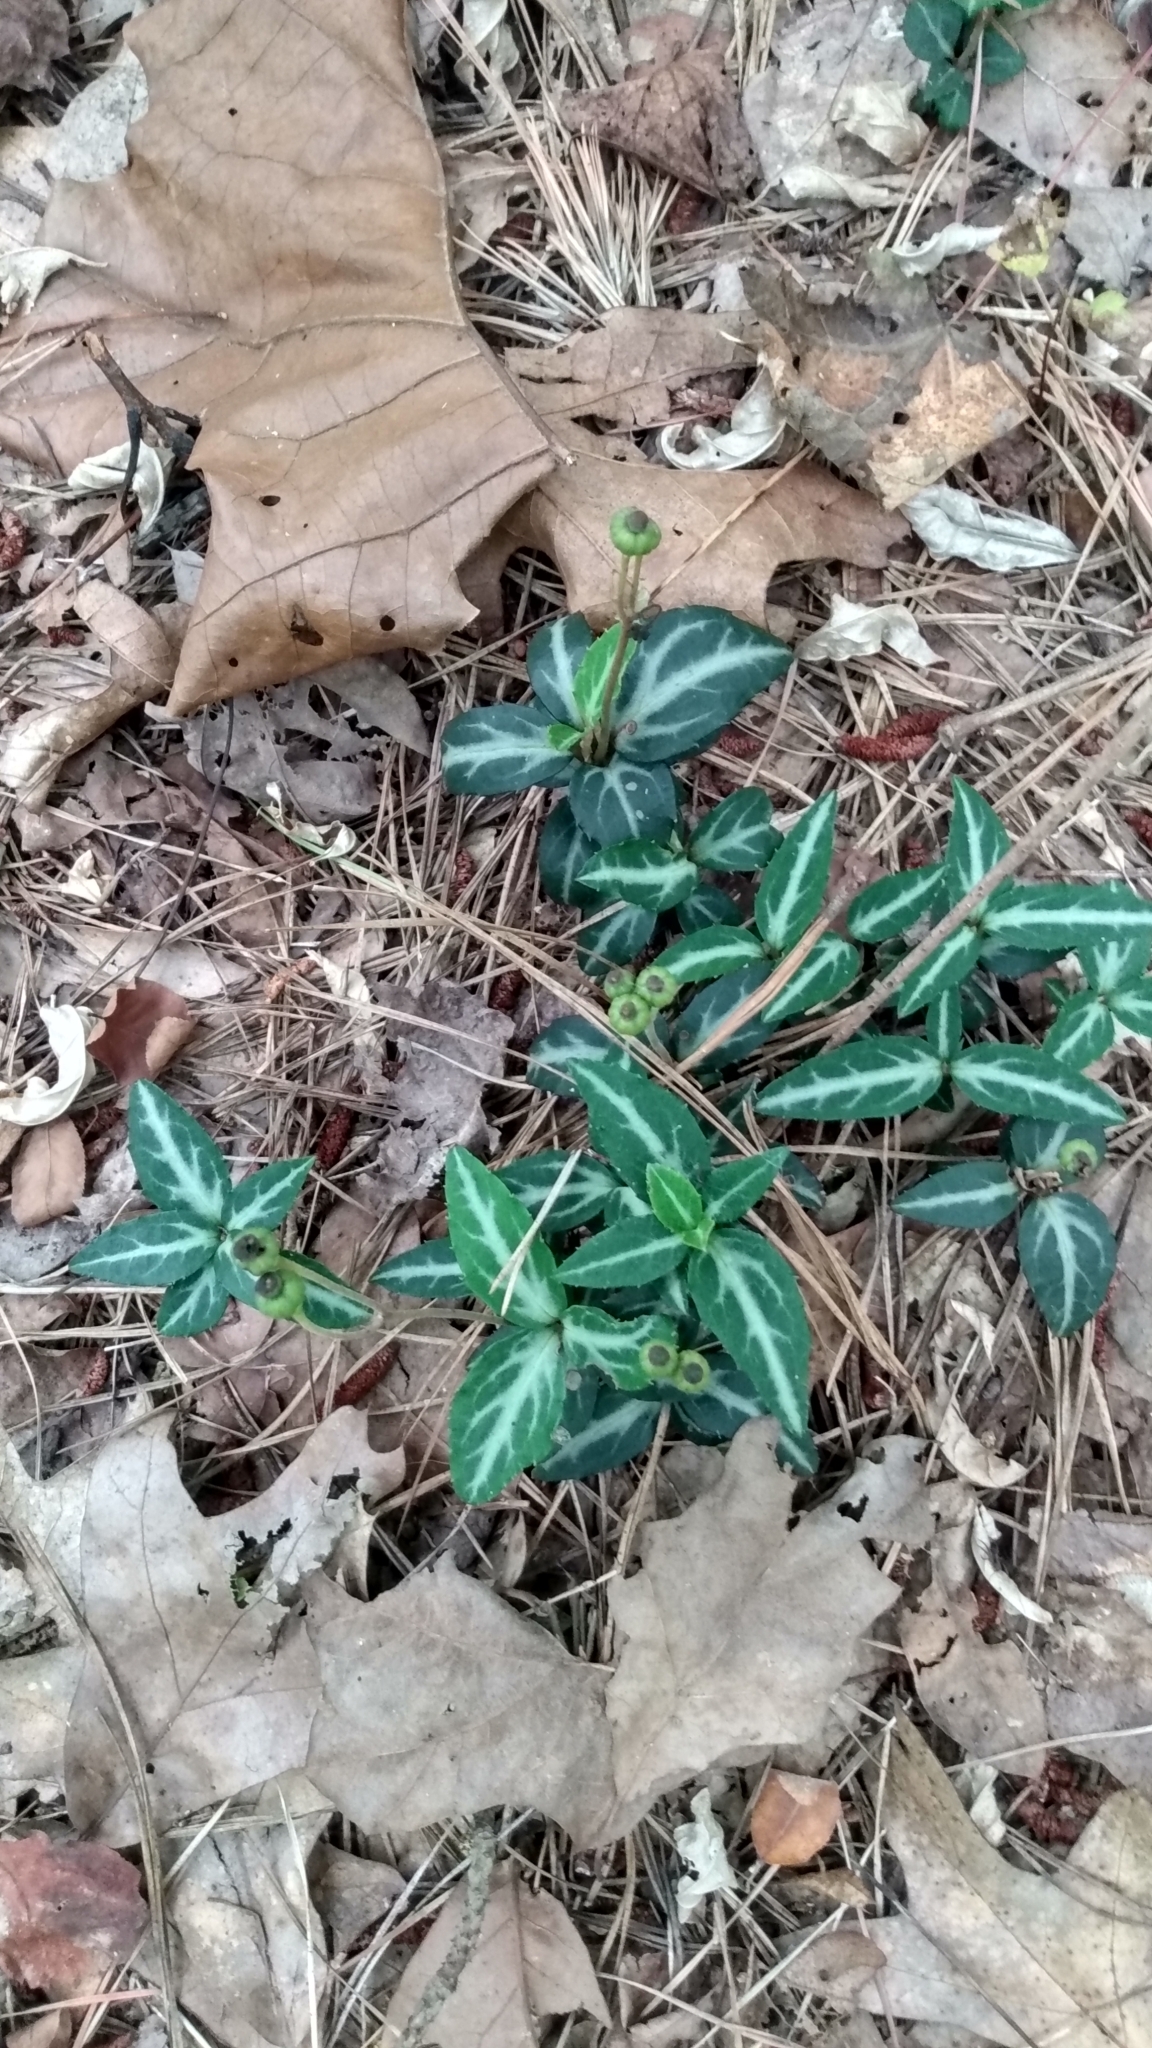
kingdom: Plantae
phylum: Tracheophyta
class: Magnoliopsida
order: Ericales
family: Ericaceae
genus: Chimaphila
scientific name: Chimaphila maculata
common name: Spotted pipsissewa
